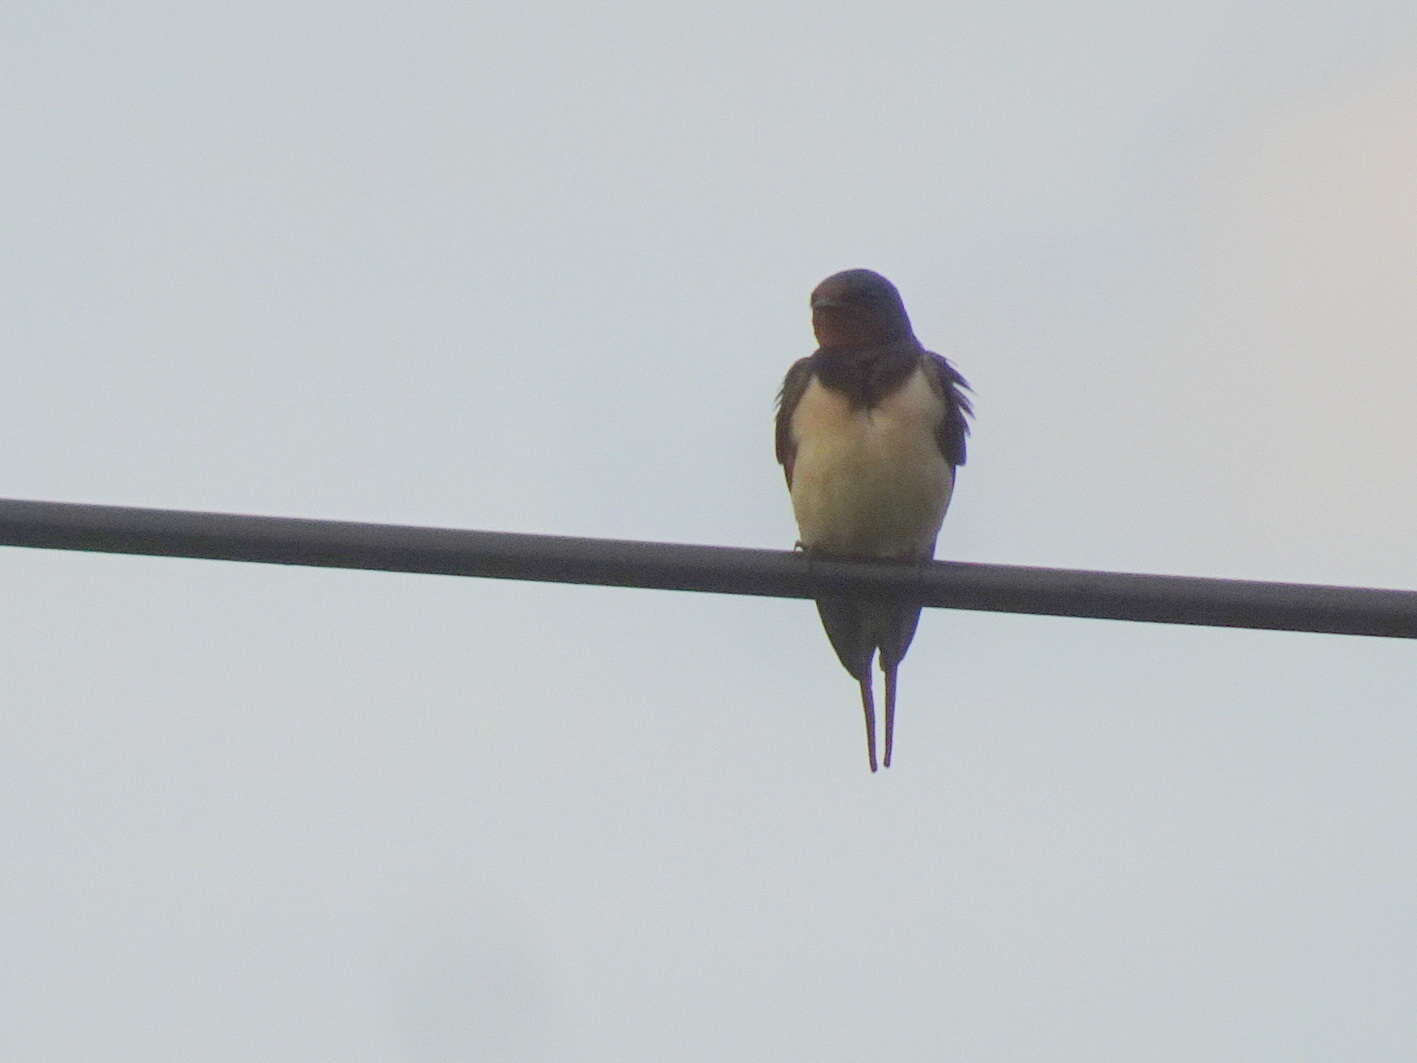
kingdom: Animalia
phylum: Chordata
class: Aves
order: Passeriformes
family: Hirundinidae
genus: Hirundo
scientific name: Hirundo rustica
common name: Barn swallow
